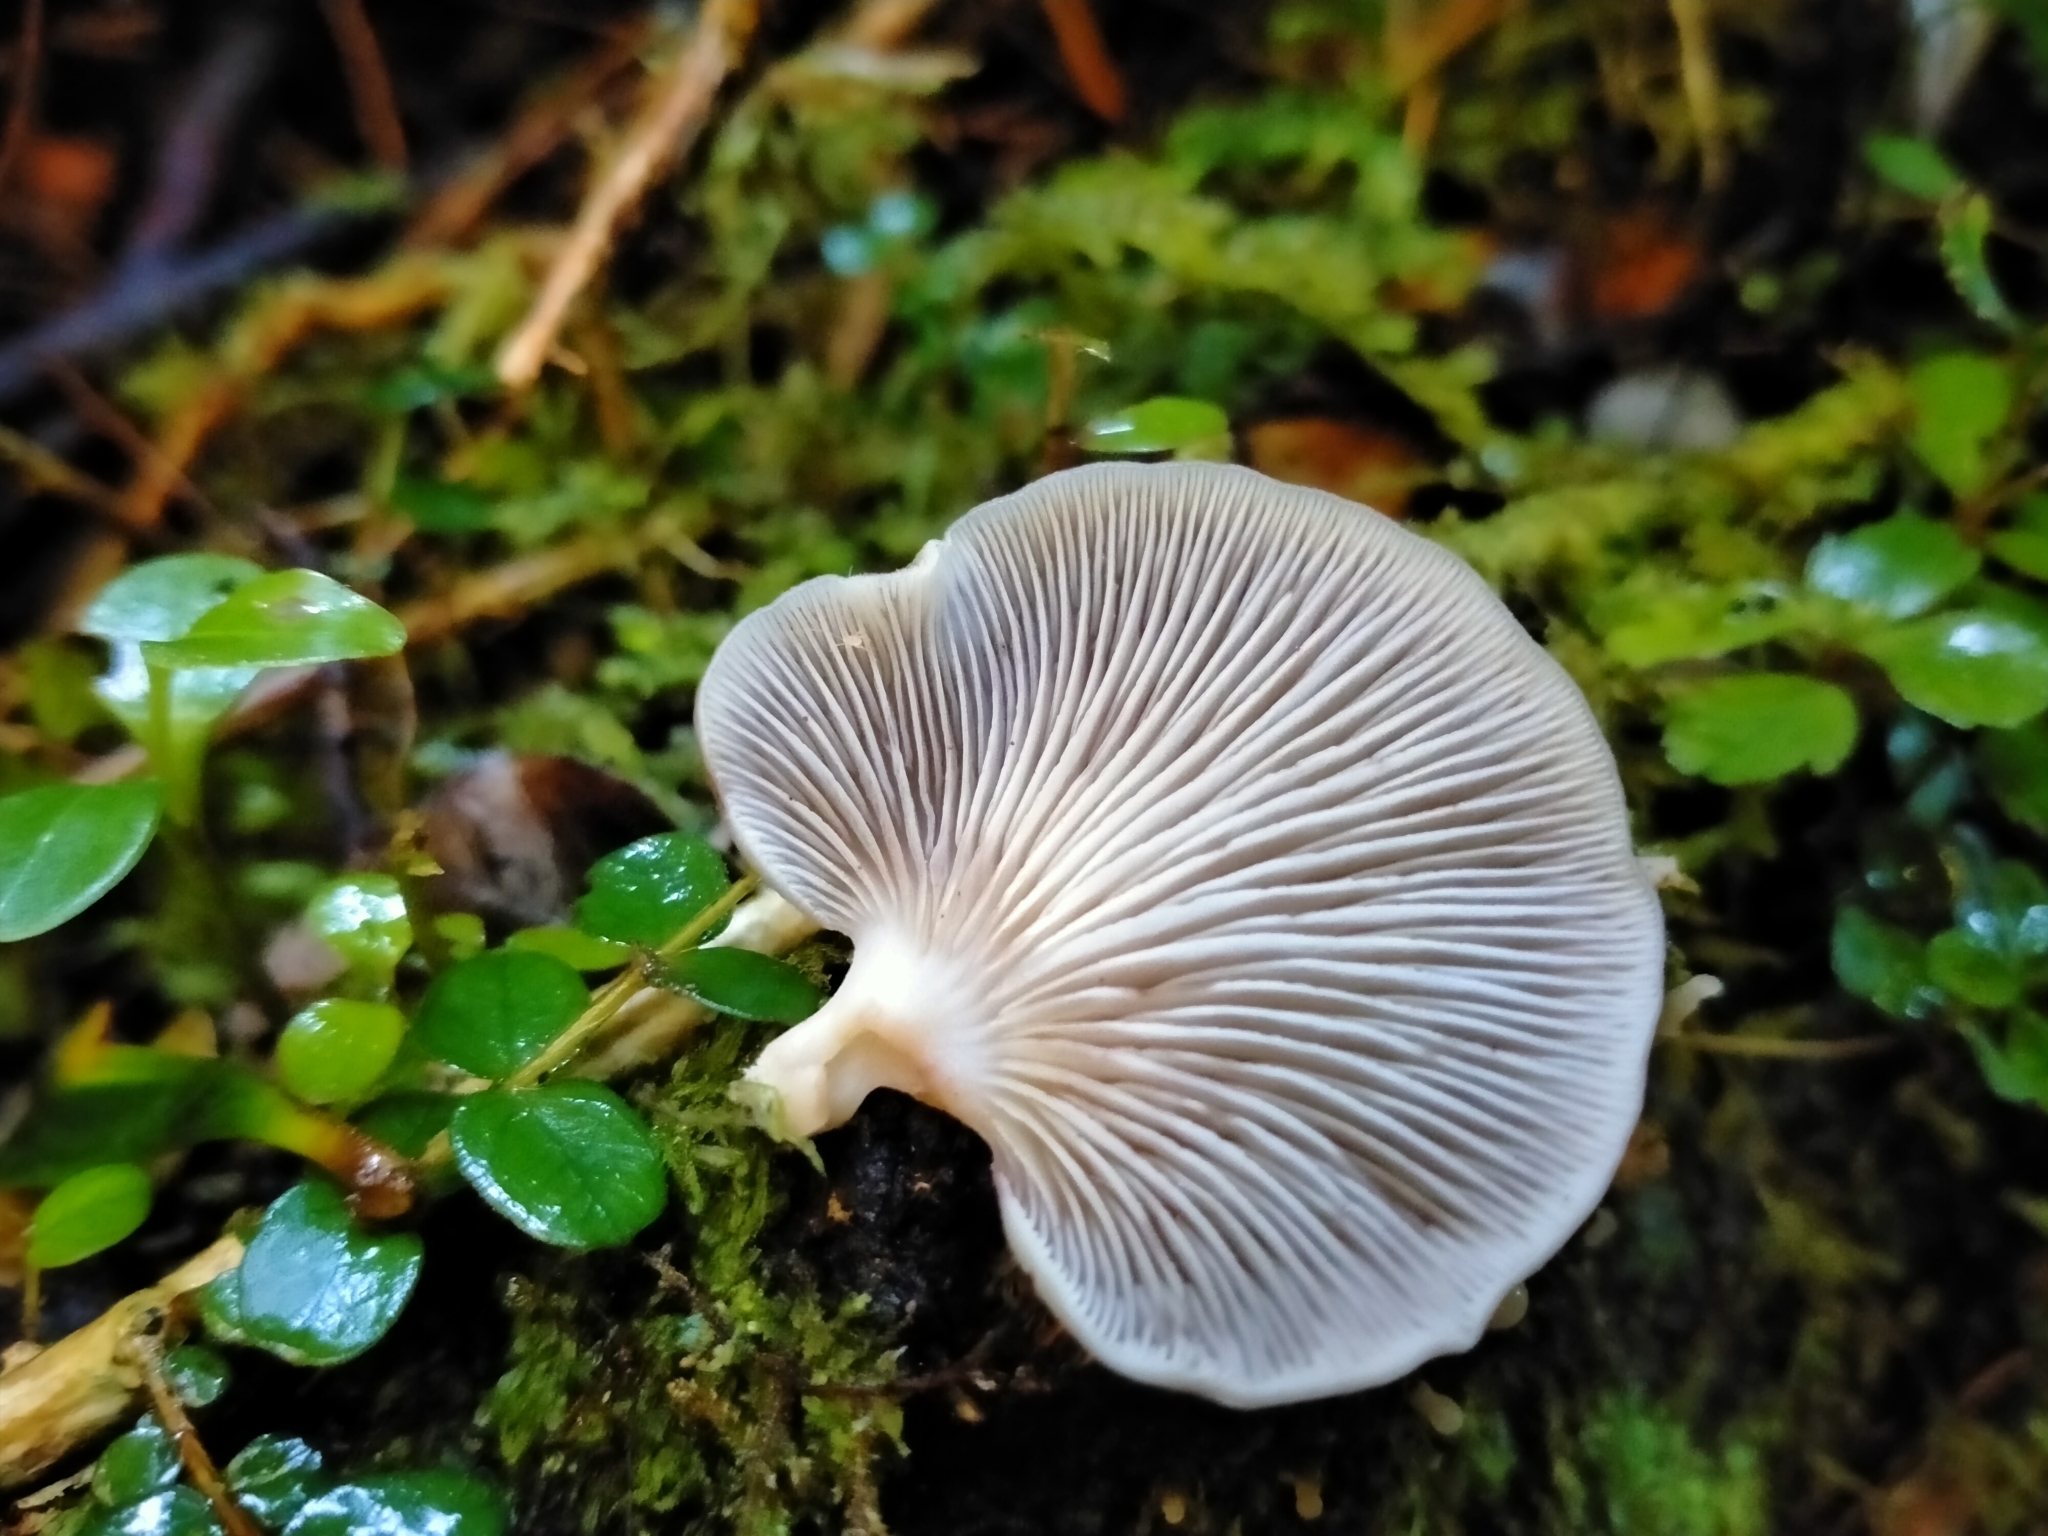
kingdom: Fungi
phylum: Basidiomycota
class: Agaricomycetes
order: Agaricales
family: Mycenaceae
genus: Panellus
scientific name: Panellus longinquus
